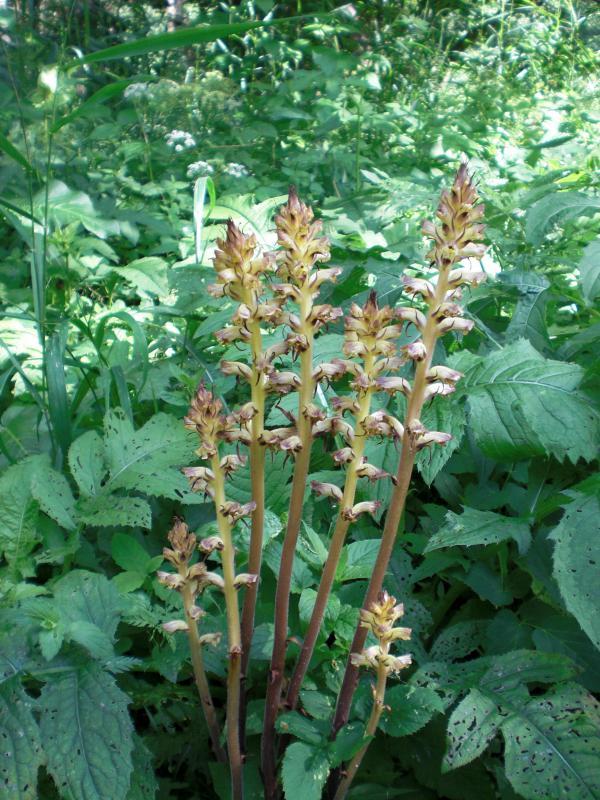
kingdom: Plantae
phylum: Tracheophyta
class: Magnoliopsida
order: Lamiales
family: Orobanchaceae
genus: Orobanche
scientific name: Orobanche reticulata
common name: Thistle broomrape
